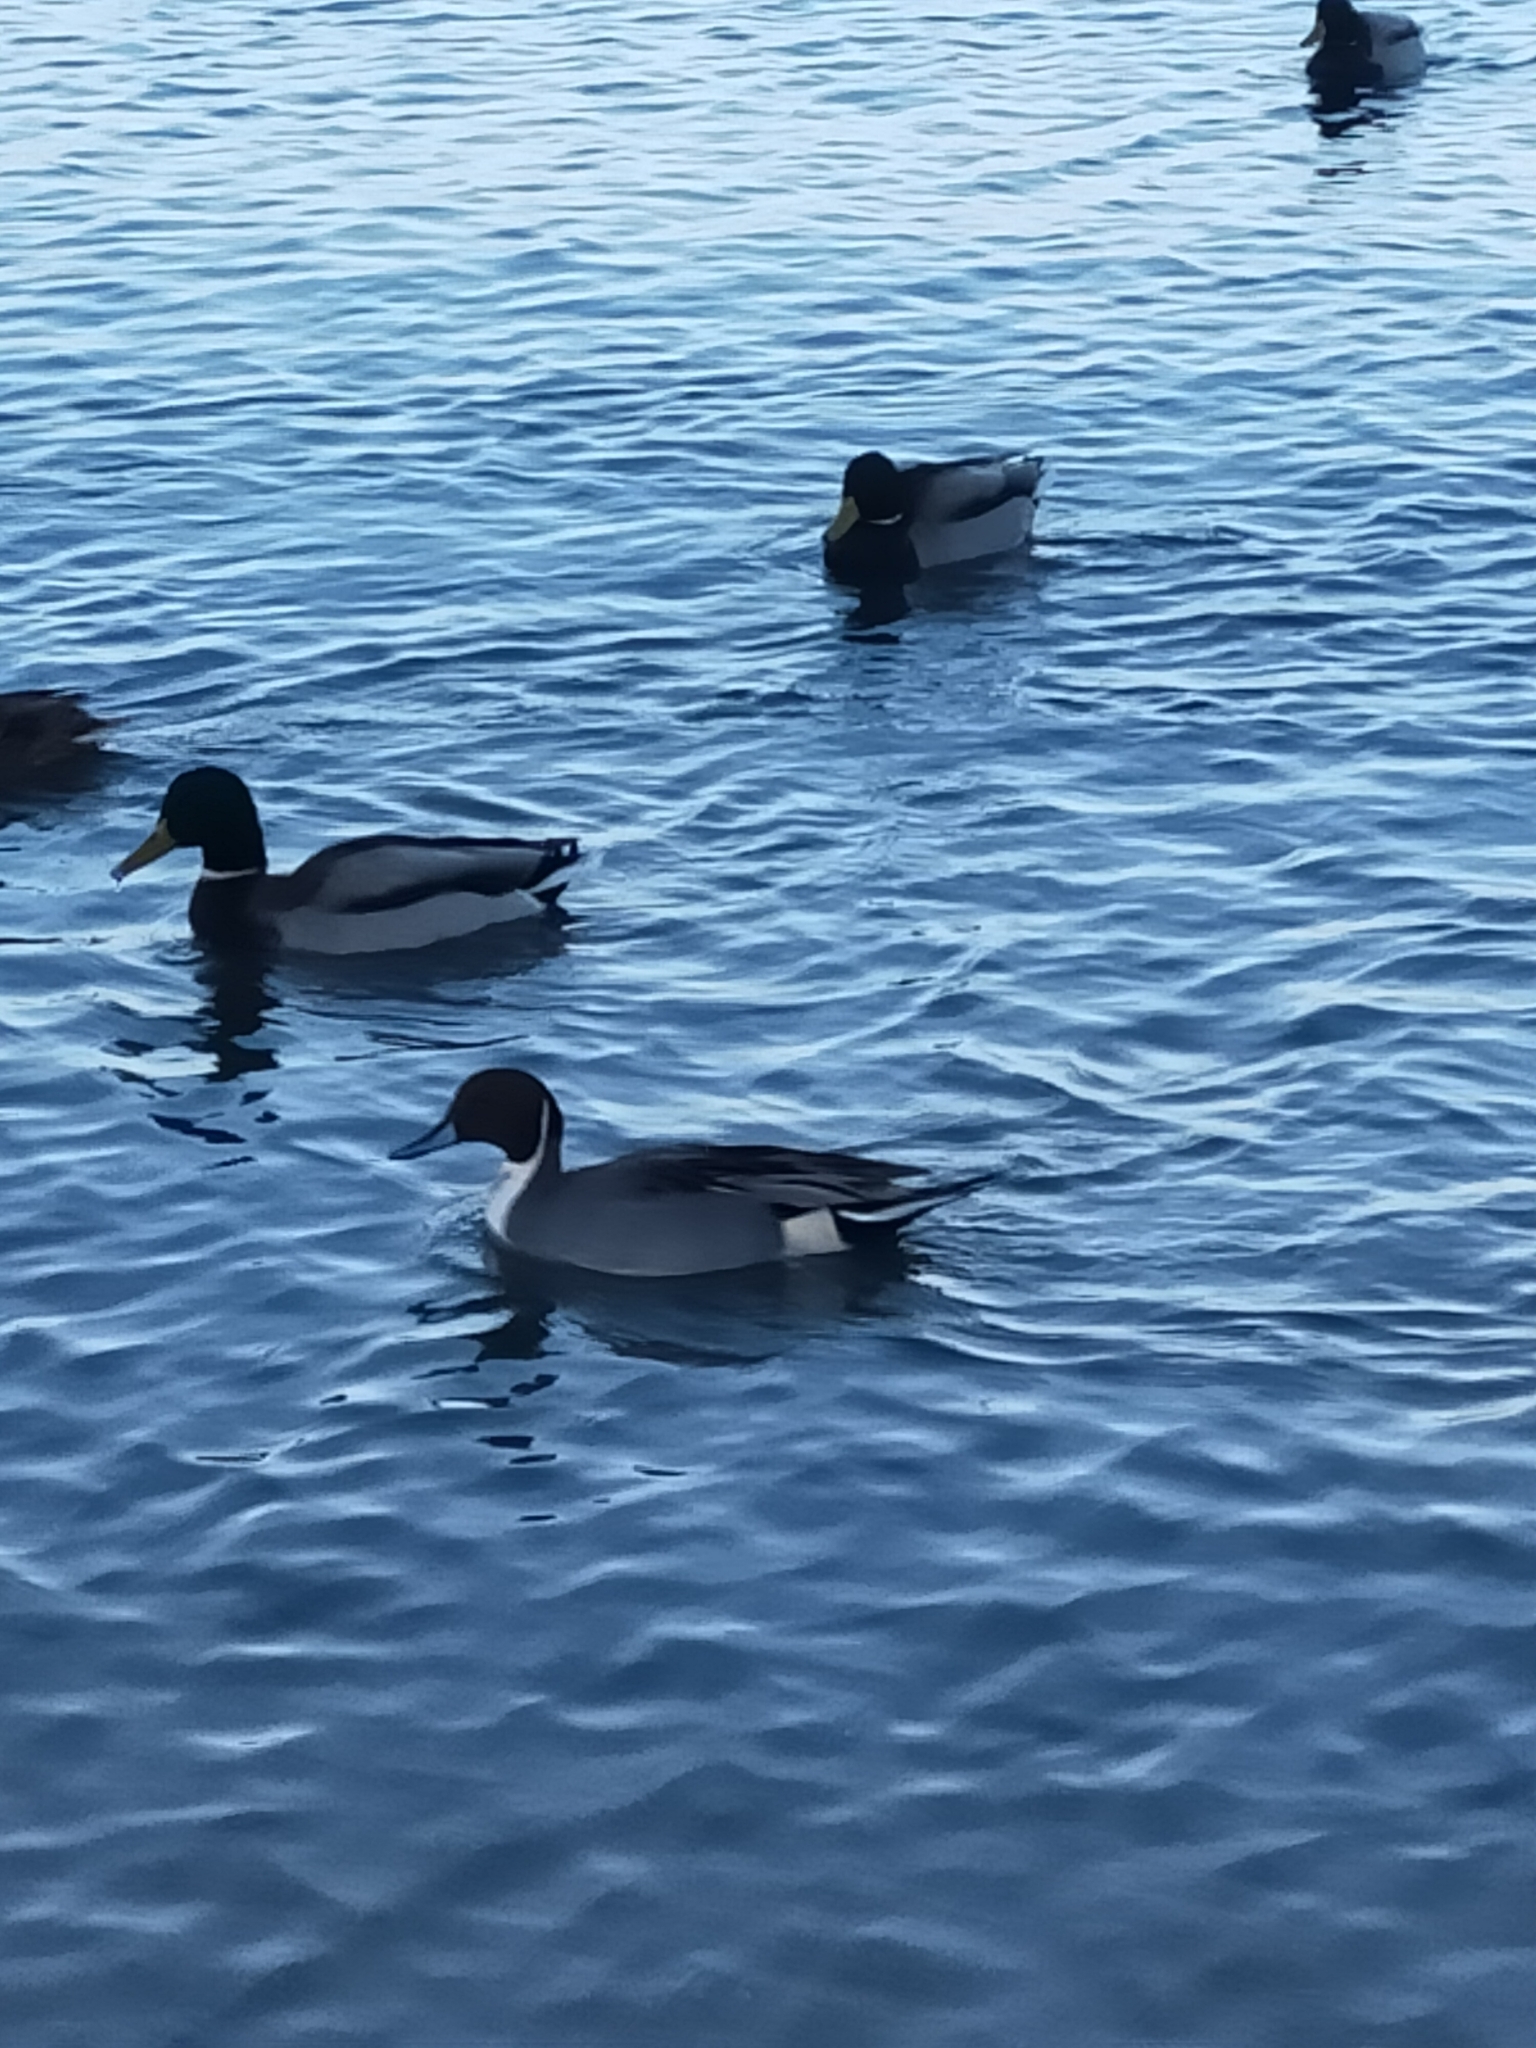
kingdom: Animalia
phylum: Chordata
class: Aves
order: Anseriformes
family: Anatidae
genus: Anas
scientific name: Anas acuta
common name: Northern pintail
